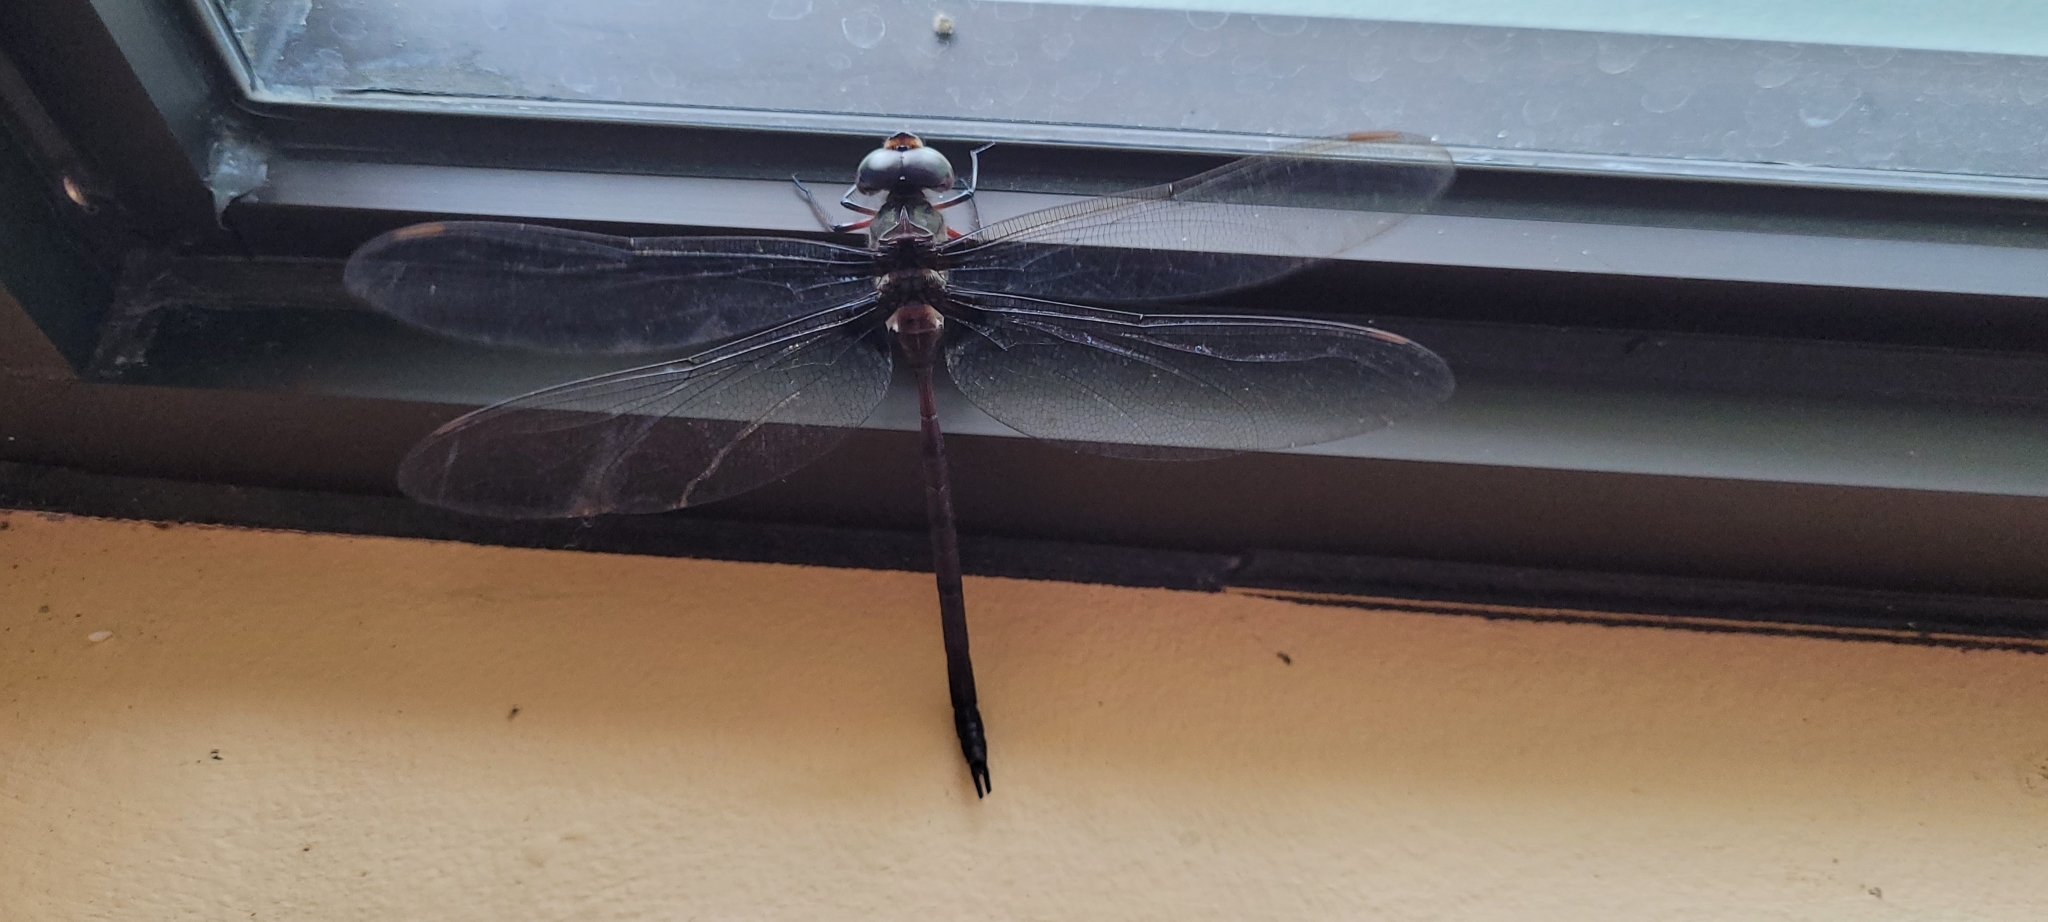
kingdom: Animalia
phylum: Arthropoda
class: Insecta
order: Odonata
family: Aeshnidae
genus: Gynacantha
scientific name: Gynacantha membranalis
